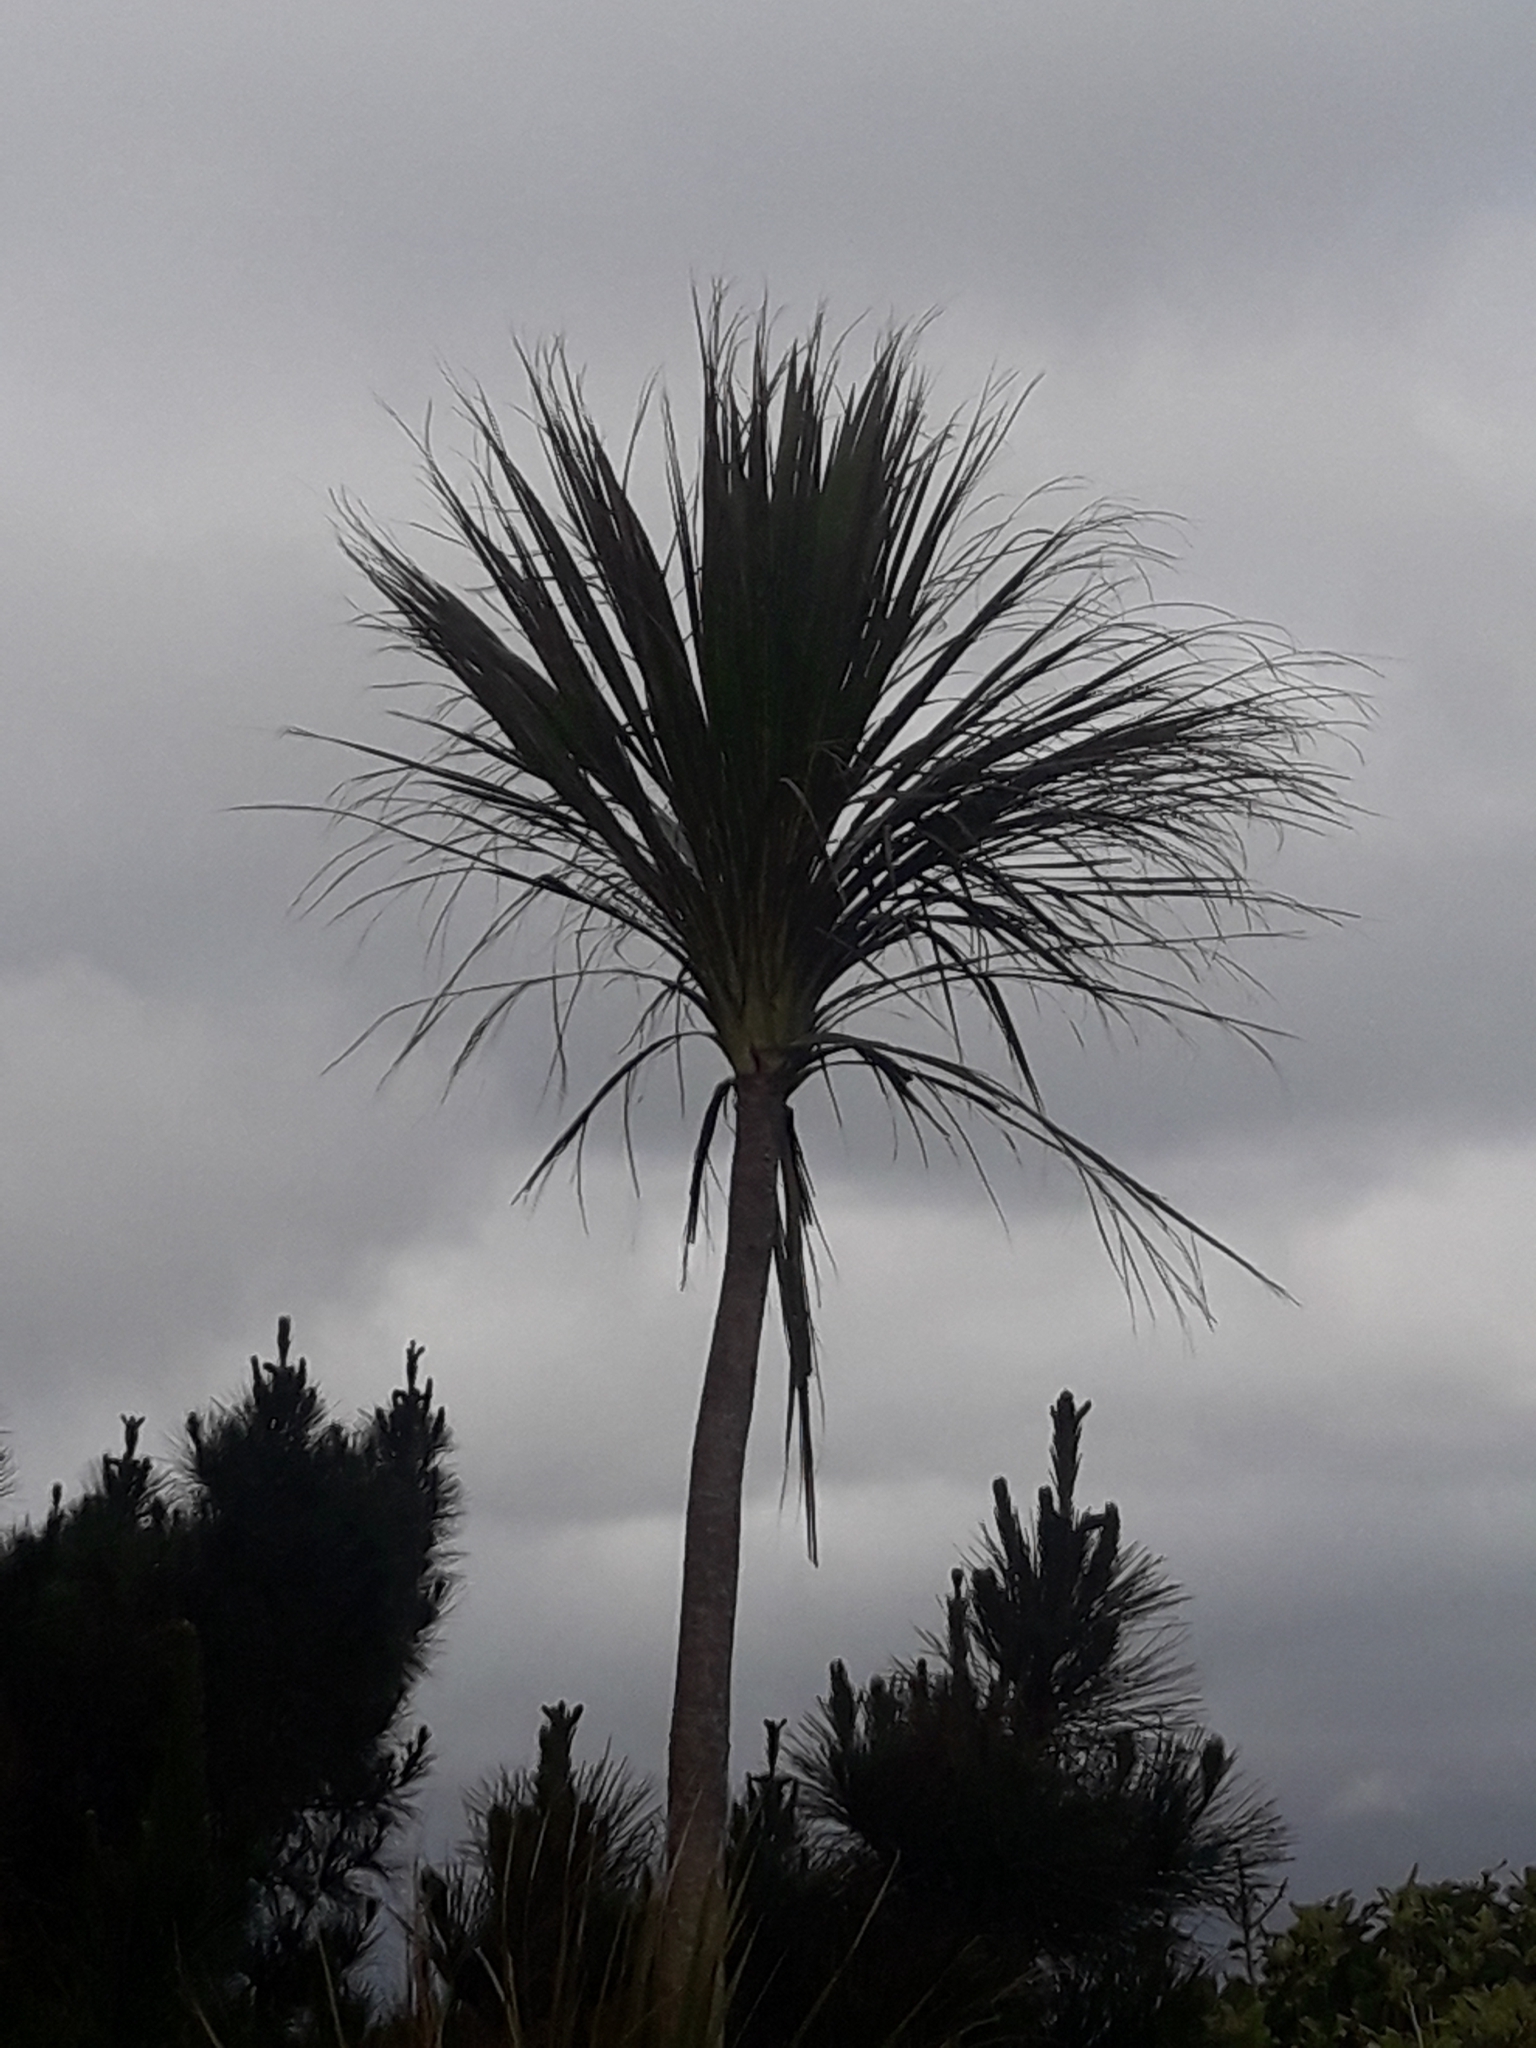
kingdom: Plantae
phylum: Tracheophyta
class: Liliopsida
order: Asparagales
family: Asparagaceae
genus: Cordyline
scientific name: Cordyline australis
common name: Cabbage-palm
